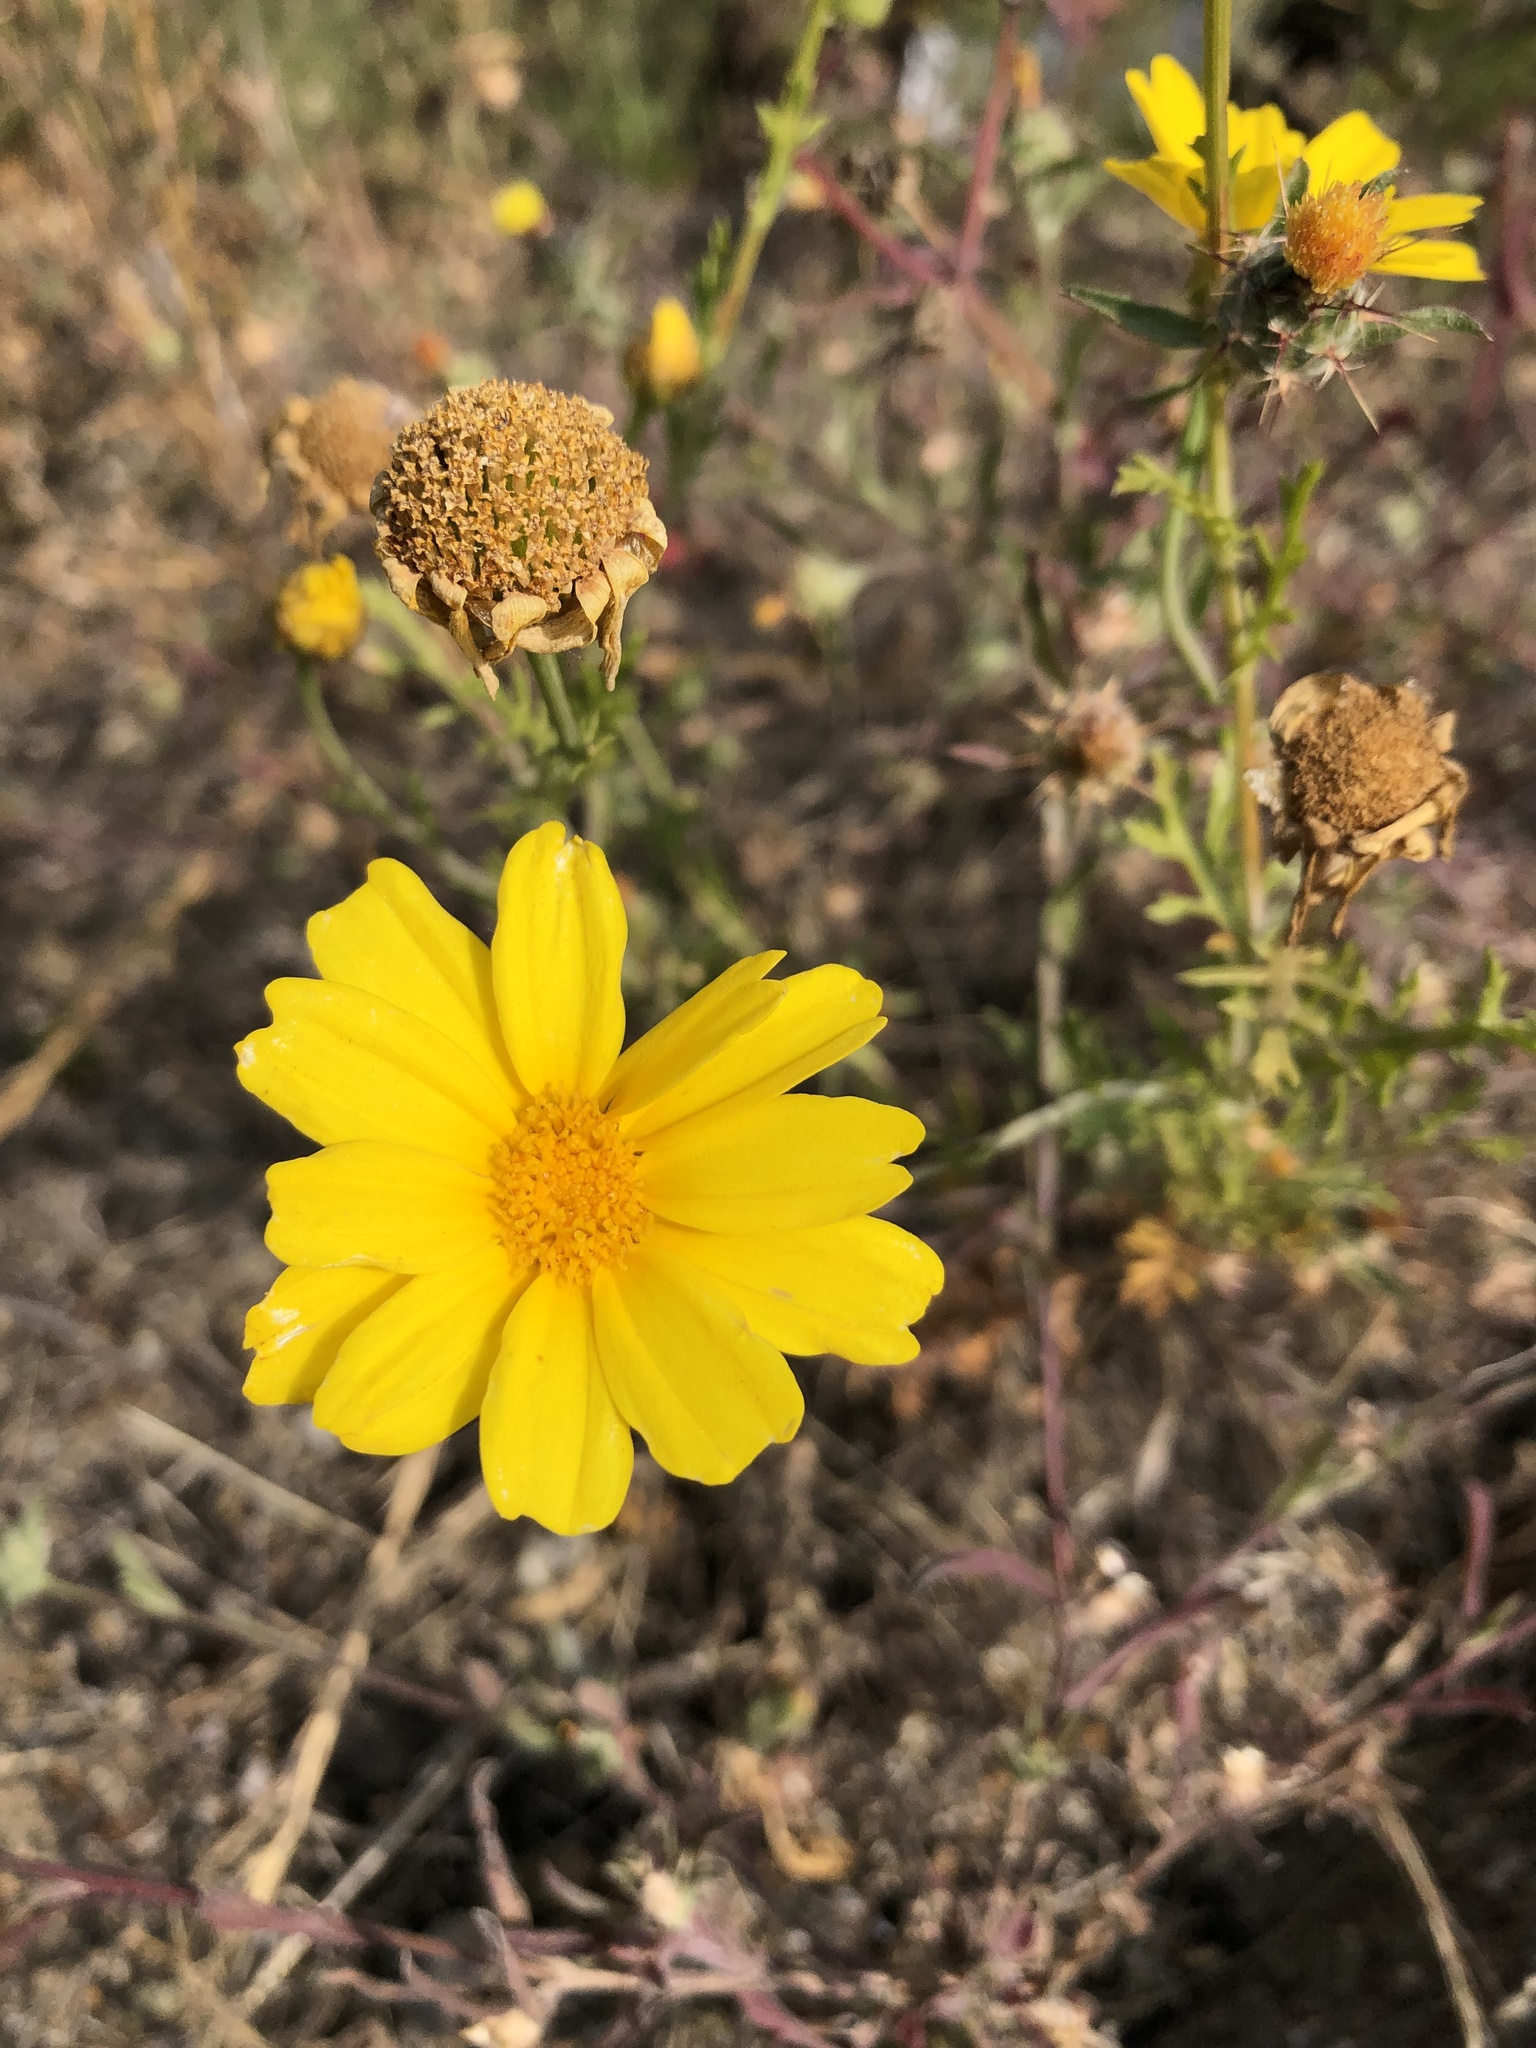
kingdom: Plantae
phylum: Tracheophyta
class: Magnoliopsida
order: Asterales
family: Asteraceae
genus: Glebionis
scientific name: Glebionis coronaria
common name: Crowndaisy
